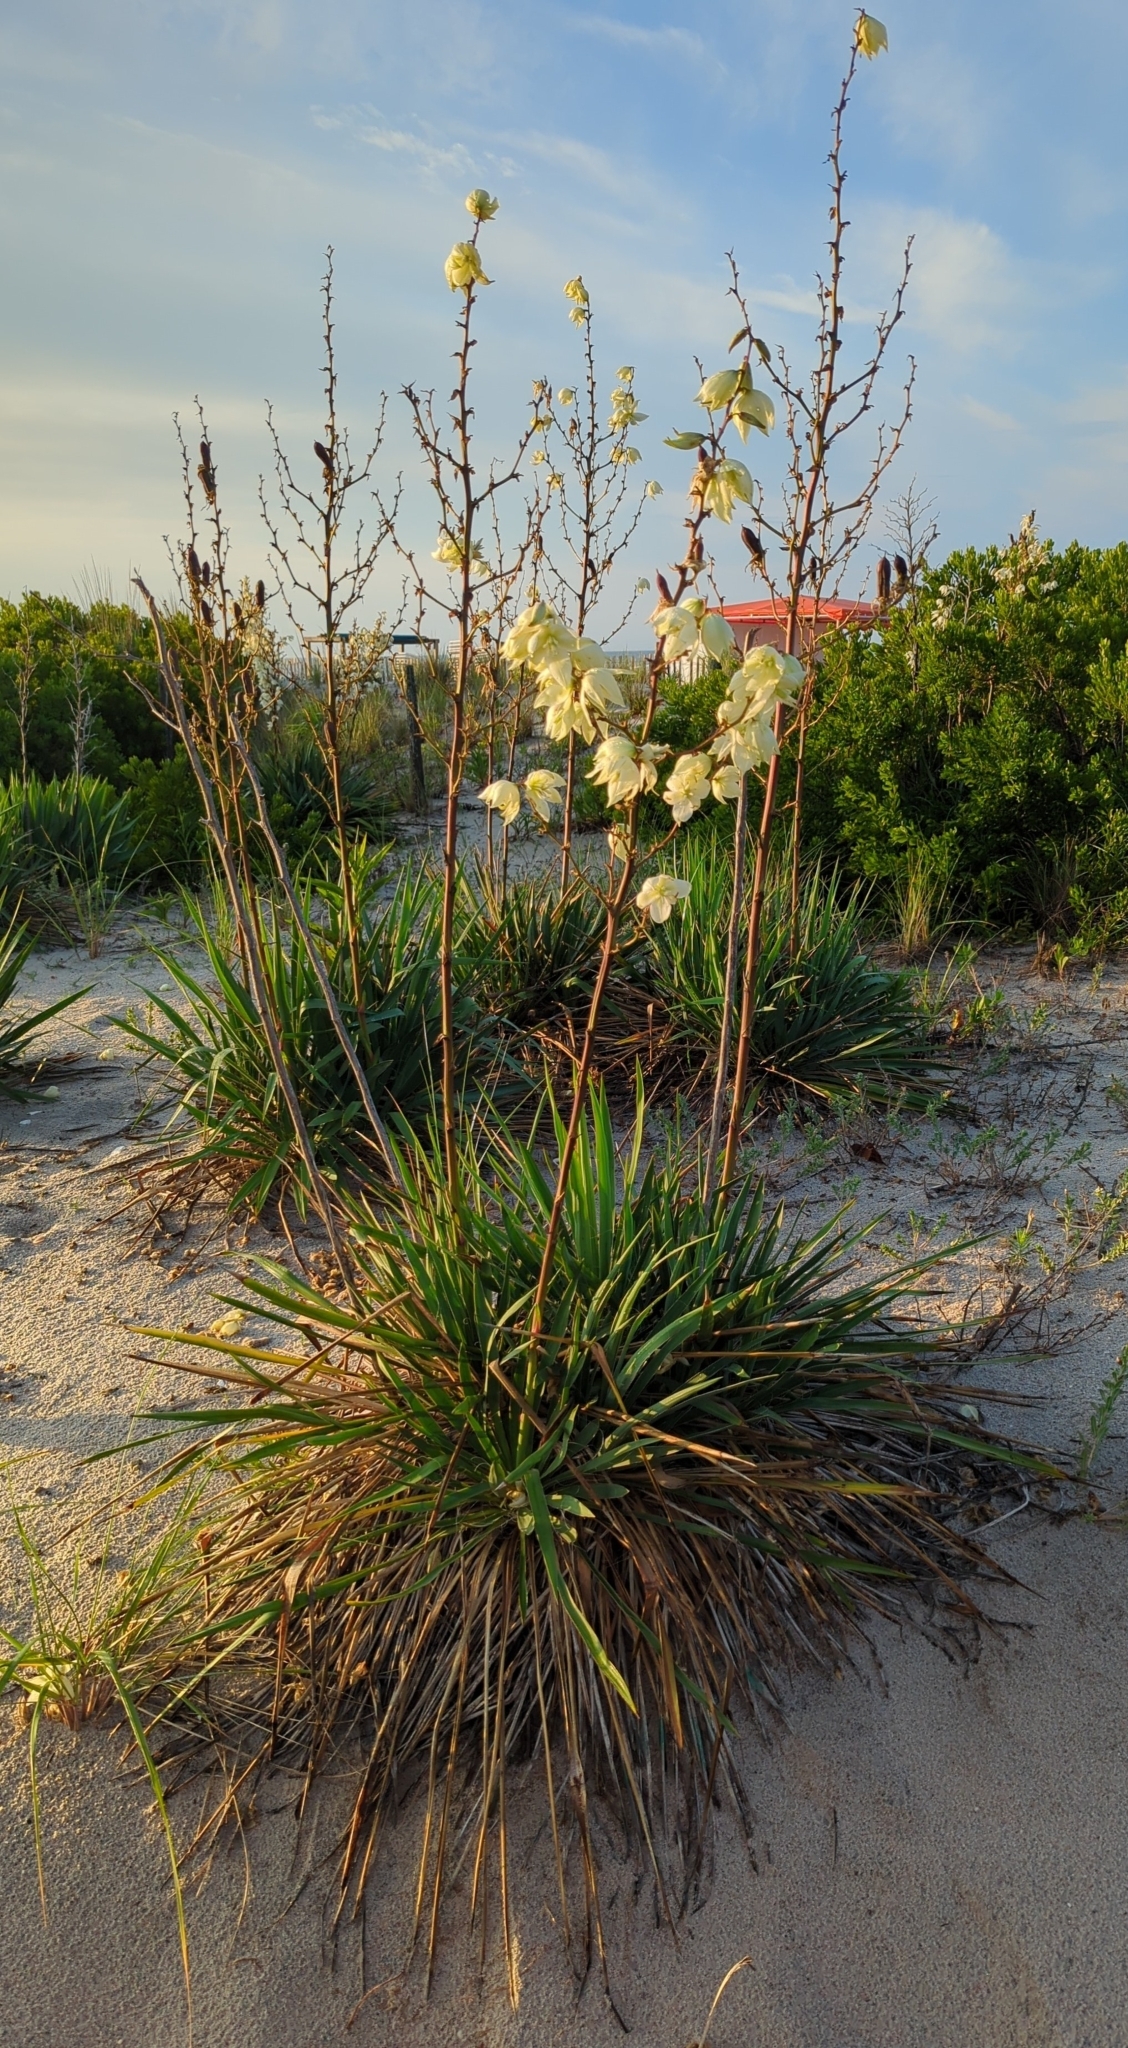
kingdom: Plantae
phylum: Tracheophyta
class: Liliopsida
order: Asparagales
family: Asparagaceae
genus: Yucca
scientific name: Yucca filamentosa
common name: Adam's-needle
